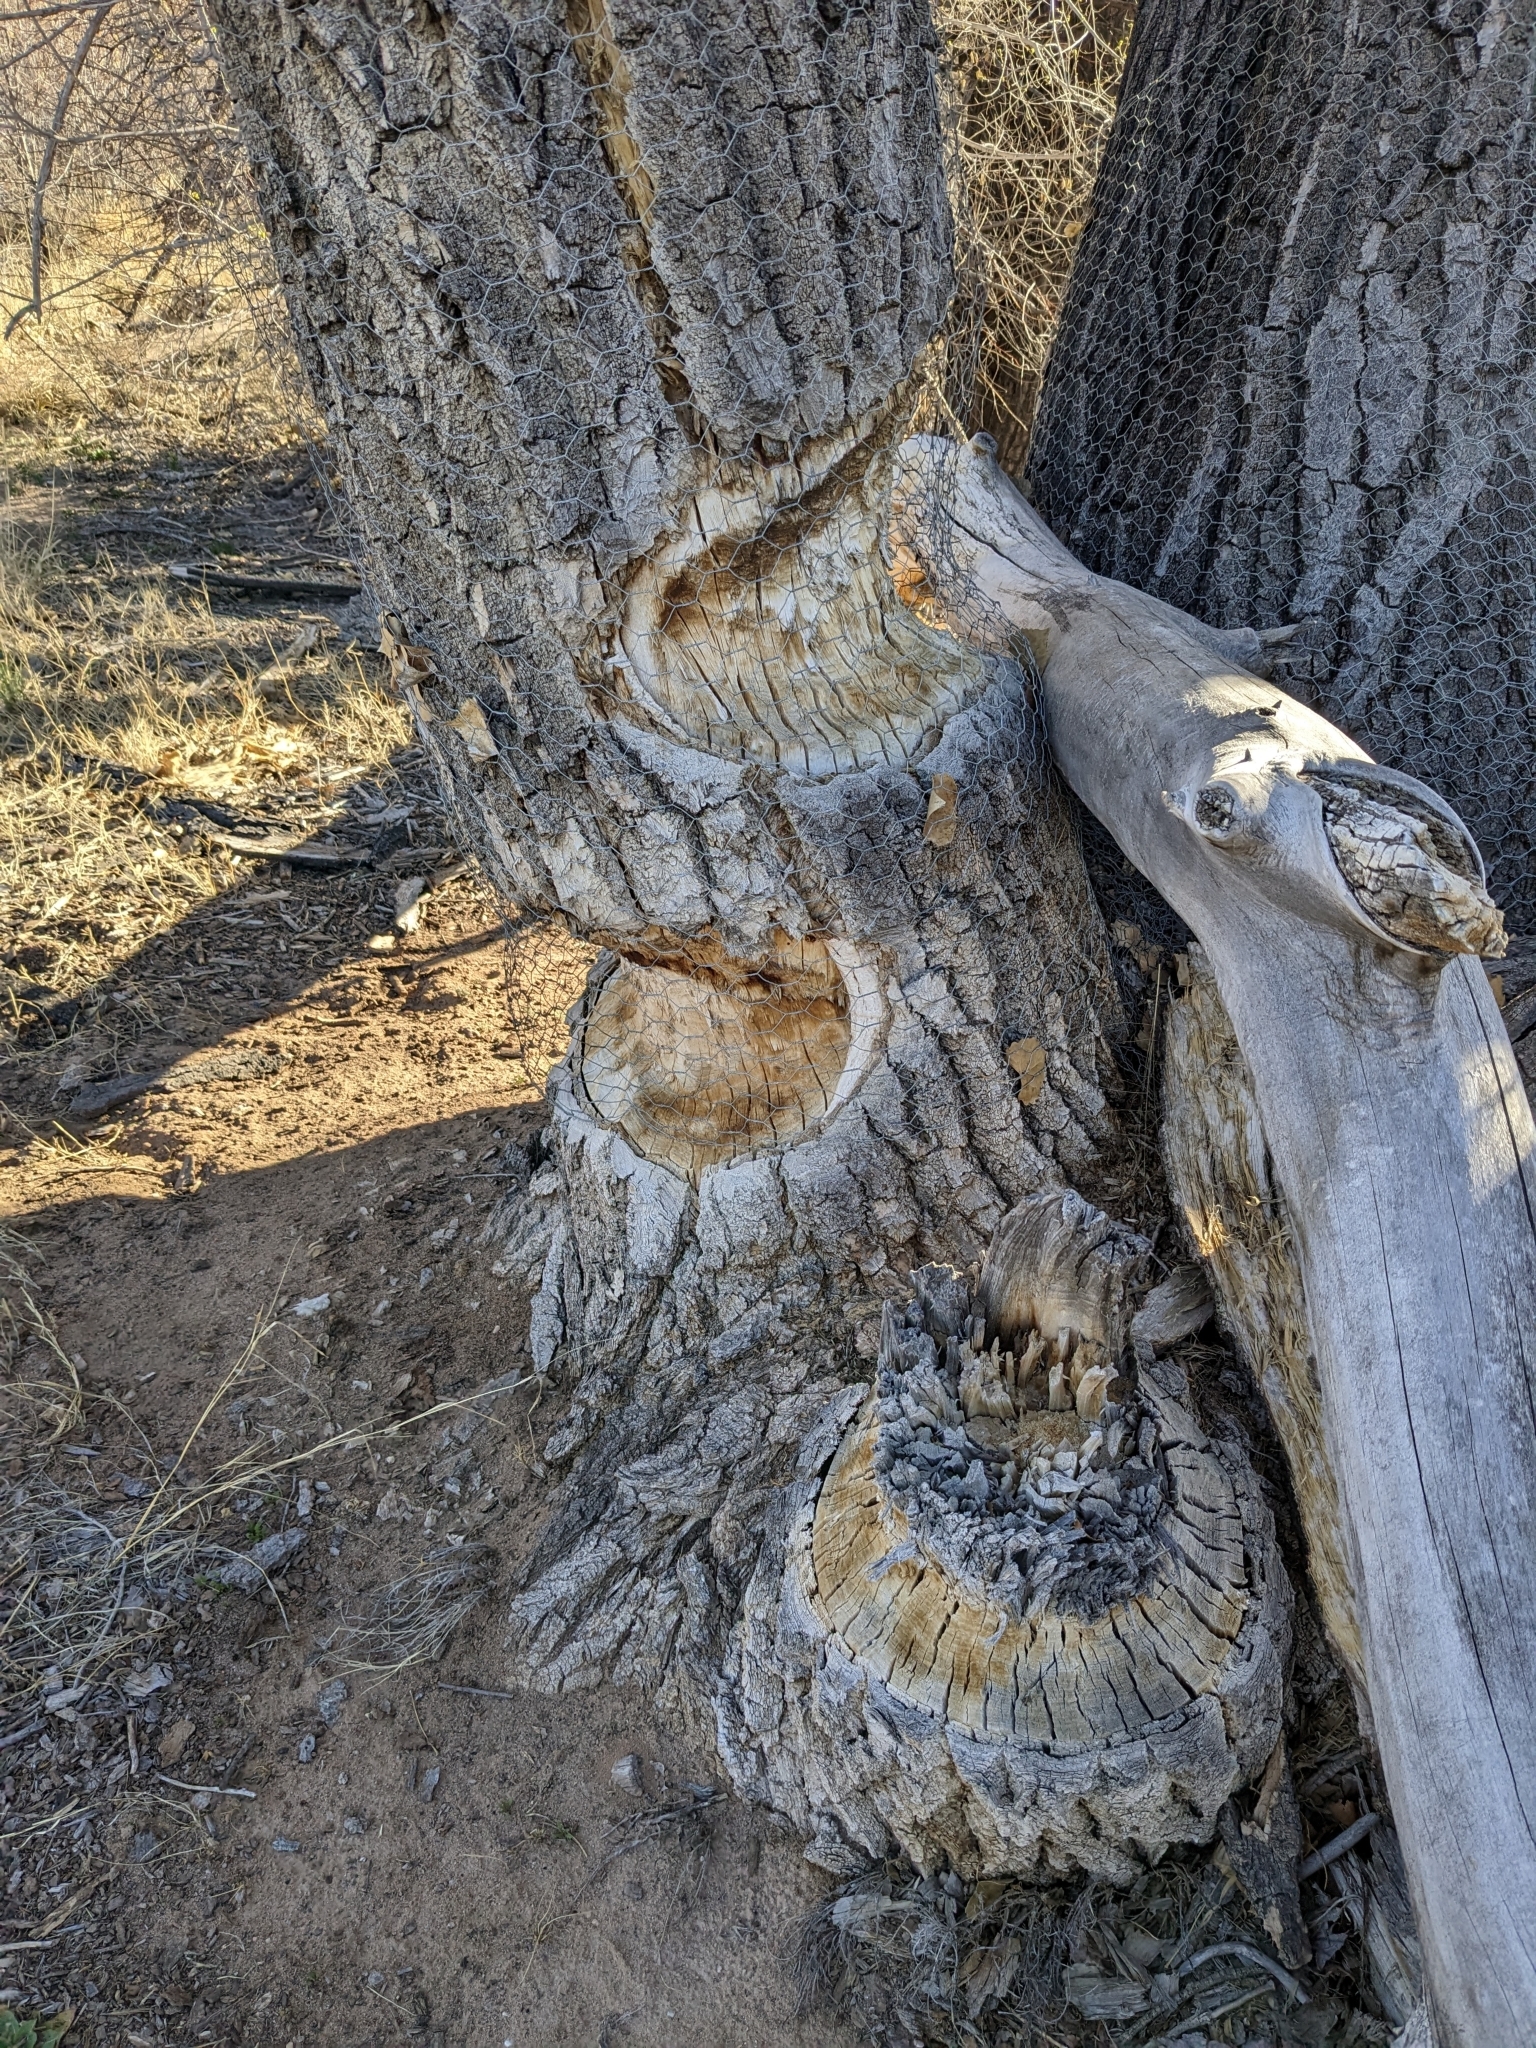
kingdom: Animalia
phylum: Chordata
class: Mammalia
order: Rodentia
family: Castoridae
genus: Castor
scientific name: Castor canadensis
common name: American beaver
